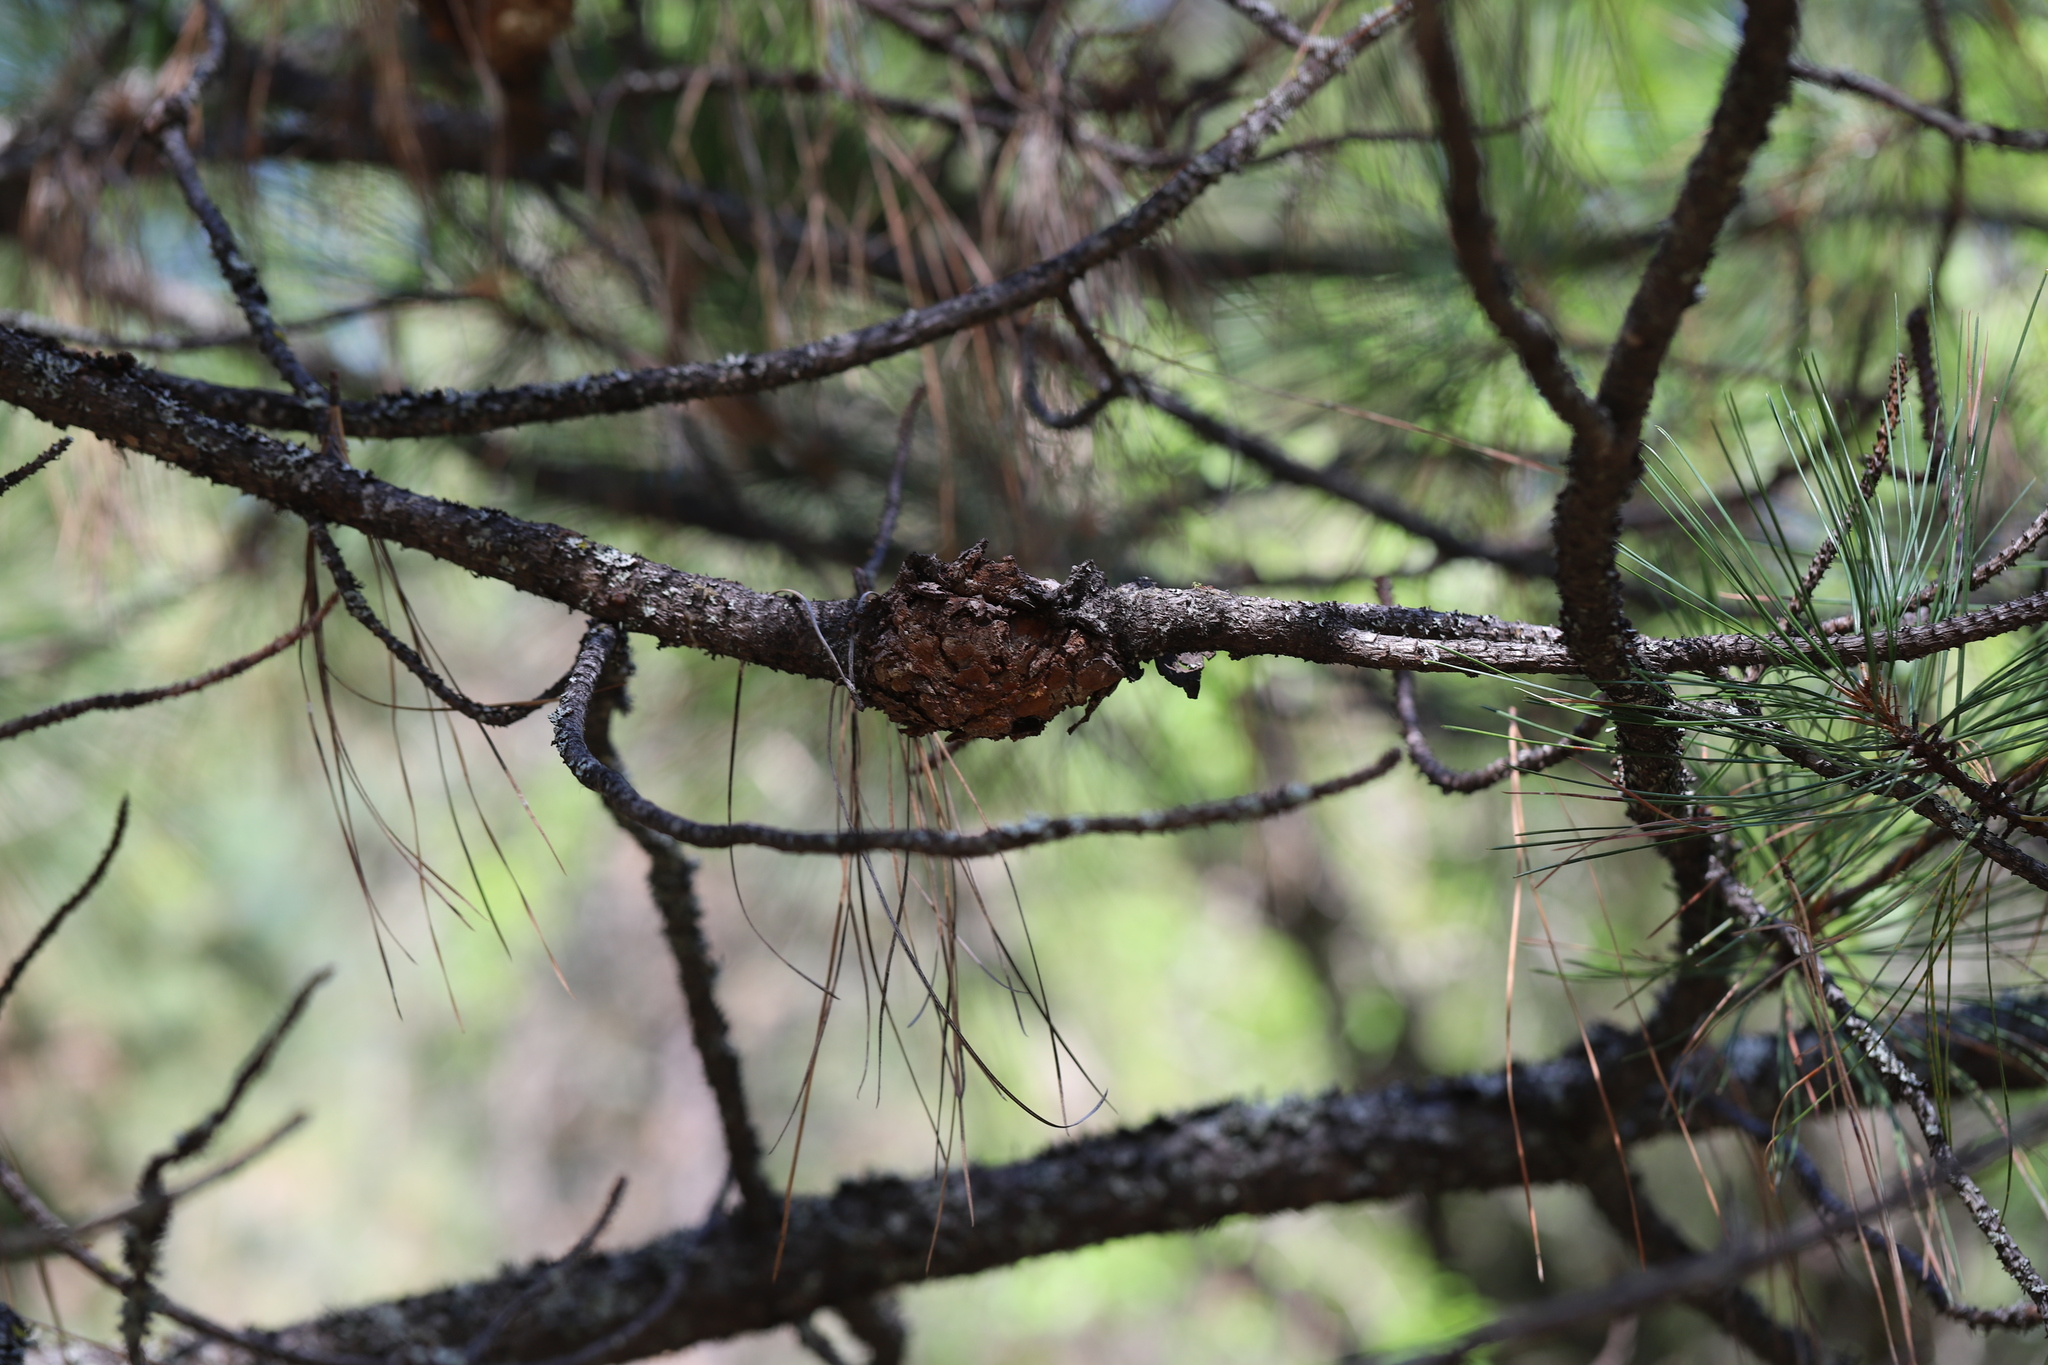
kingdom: Fungi
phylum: Basidiomycota
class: Pucciniomycetes
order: Pucciniales
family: Cronartiaceae
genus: Cronartium
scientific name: Cronartium harknessii
